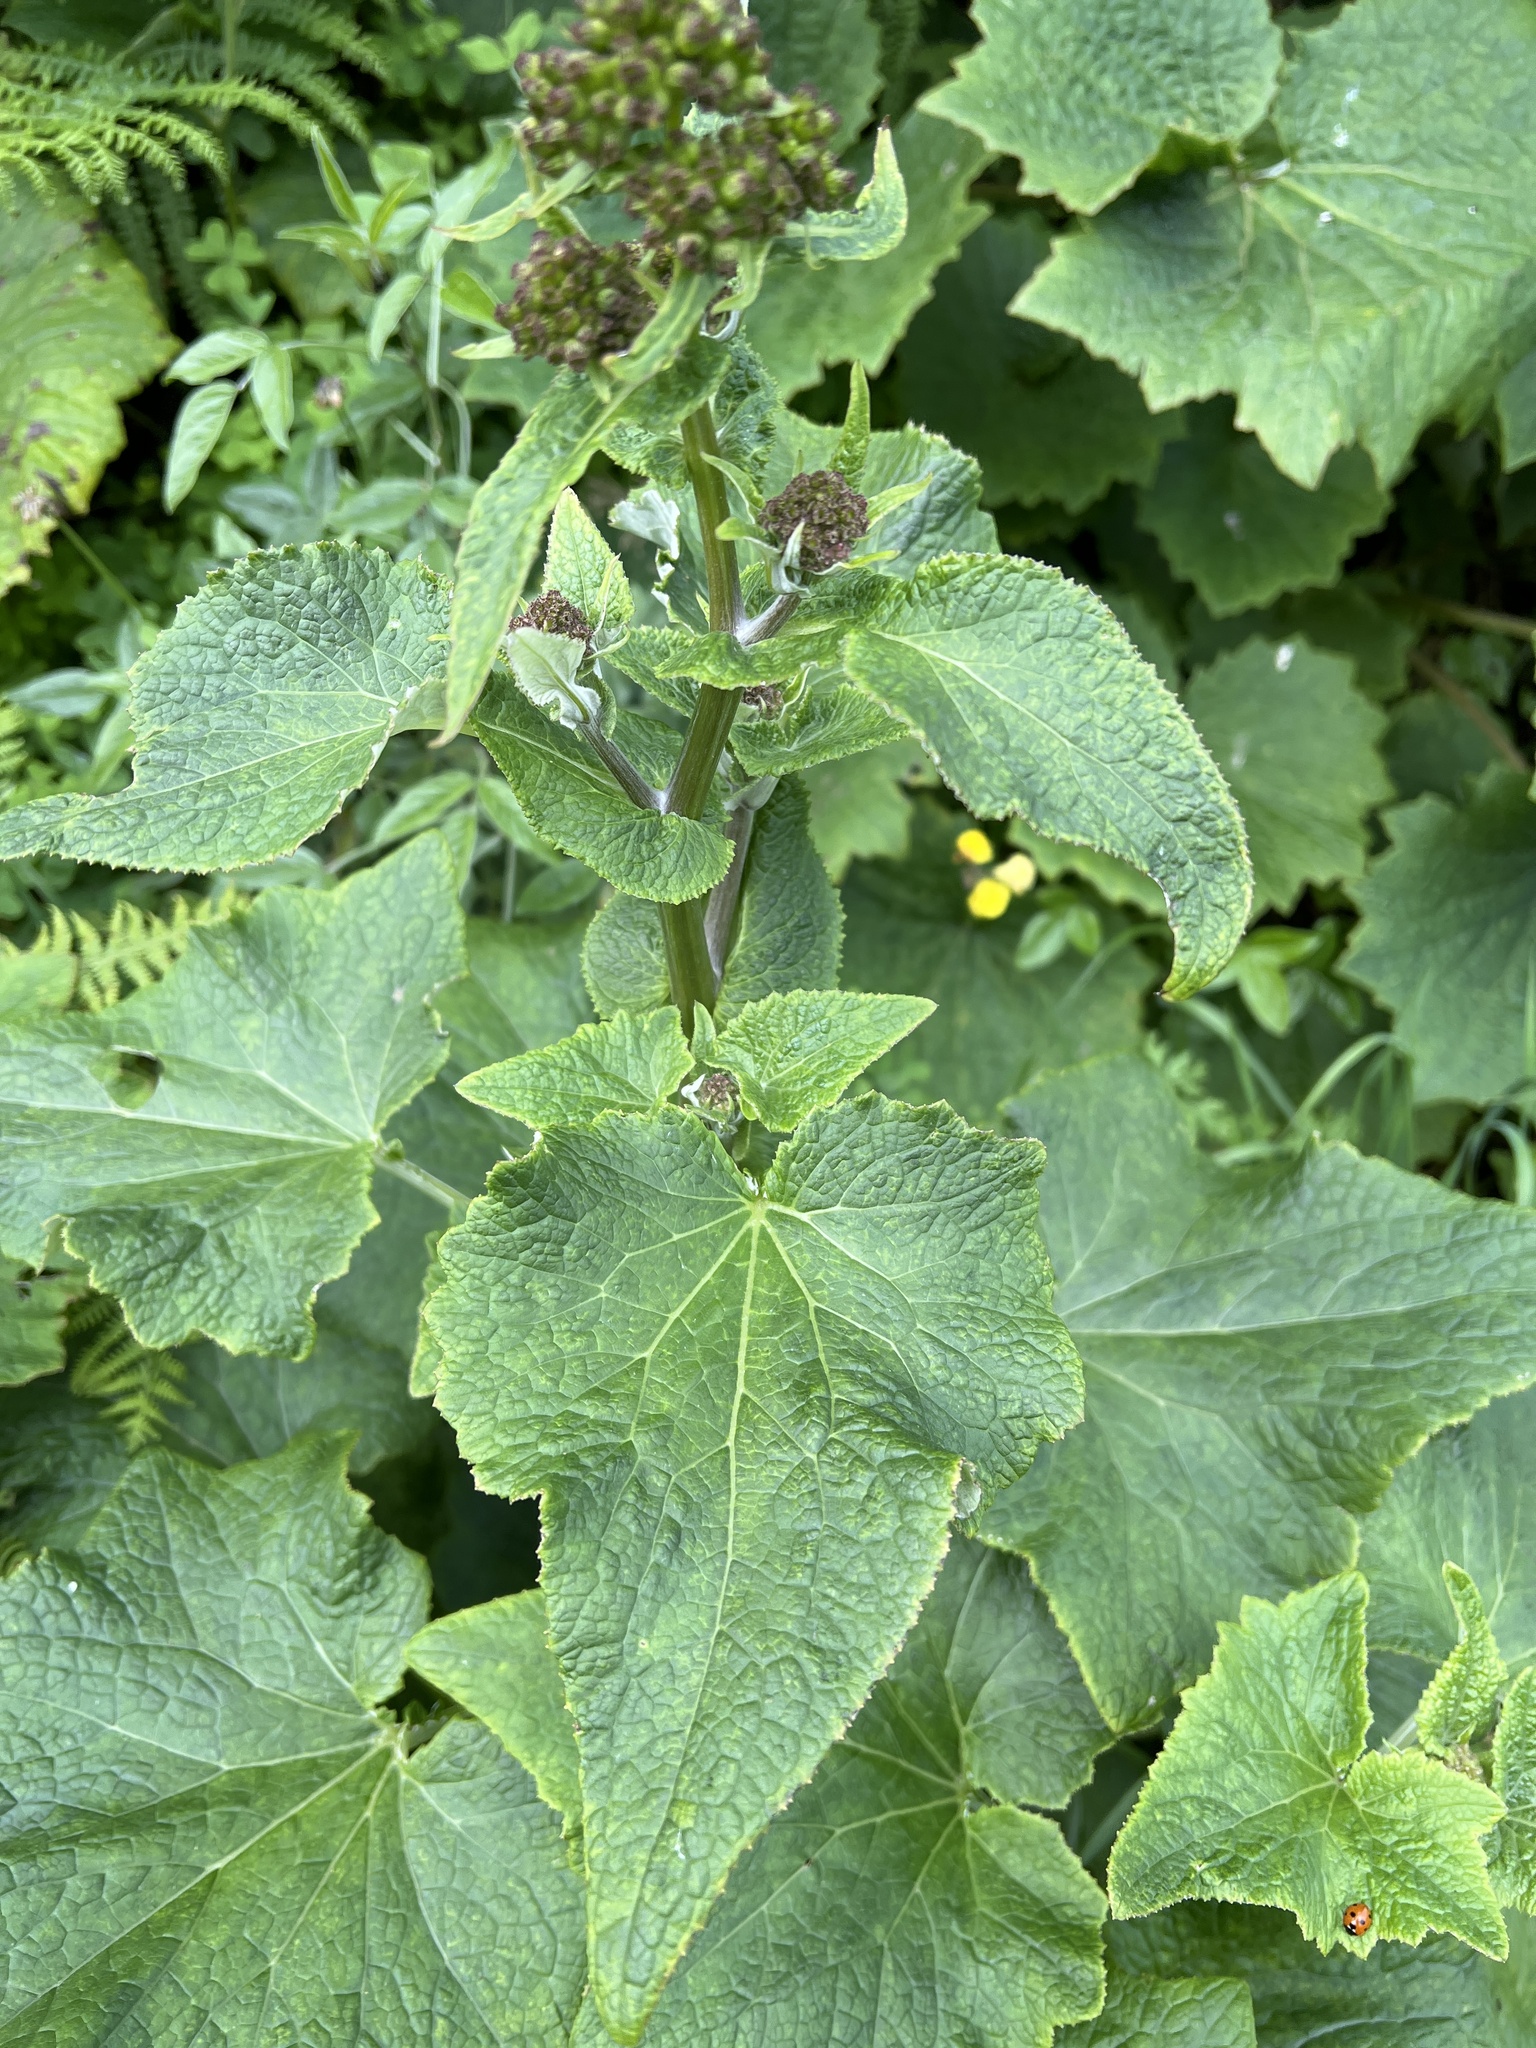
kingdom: Plantae
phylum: Tracheophyta
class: Magnoliopsida
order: Asterales
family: Asteraceae
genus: Pericallis
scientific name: Pericallis murrayi
